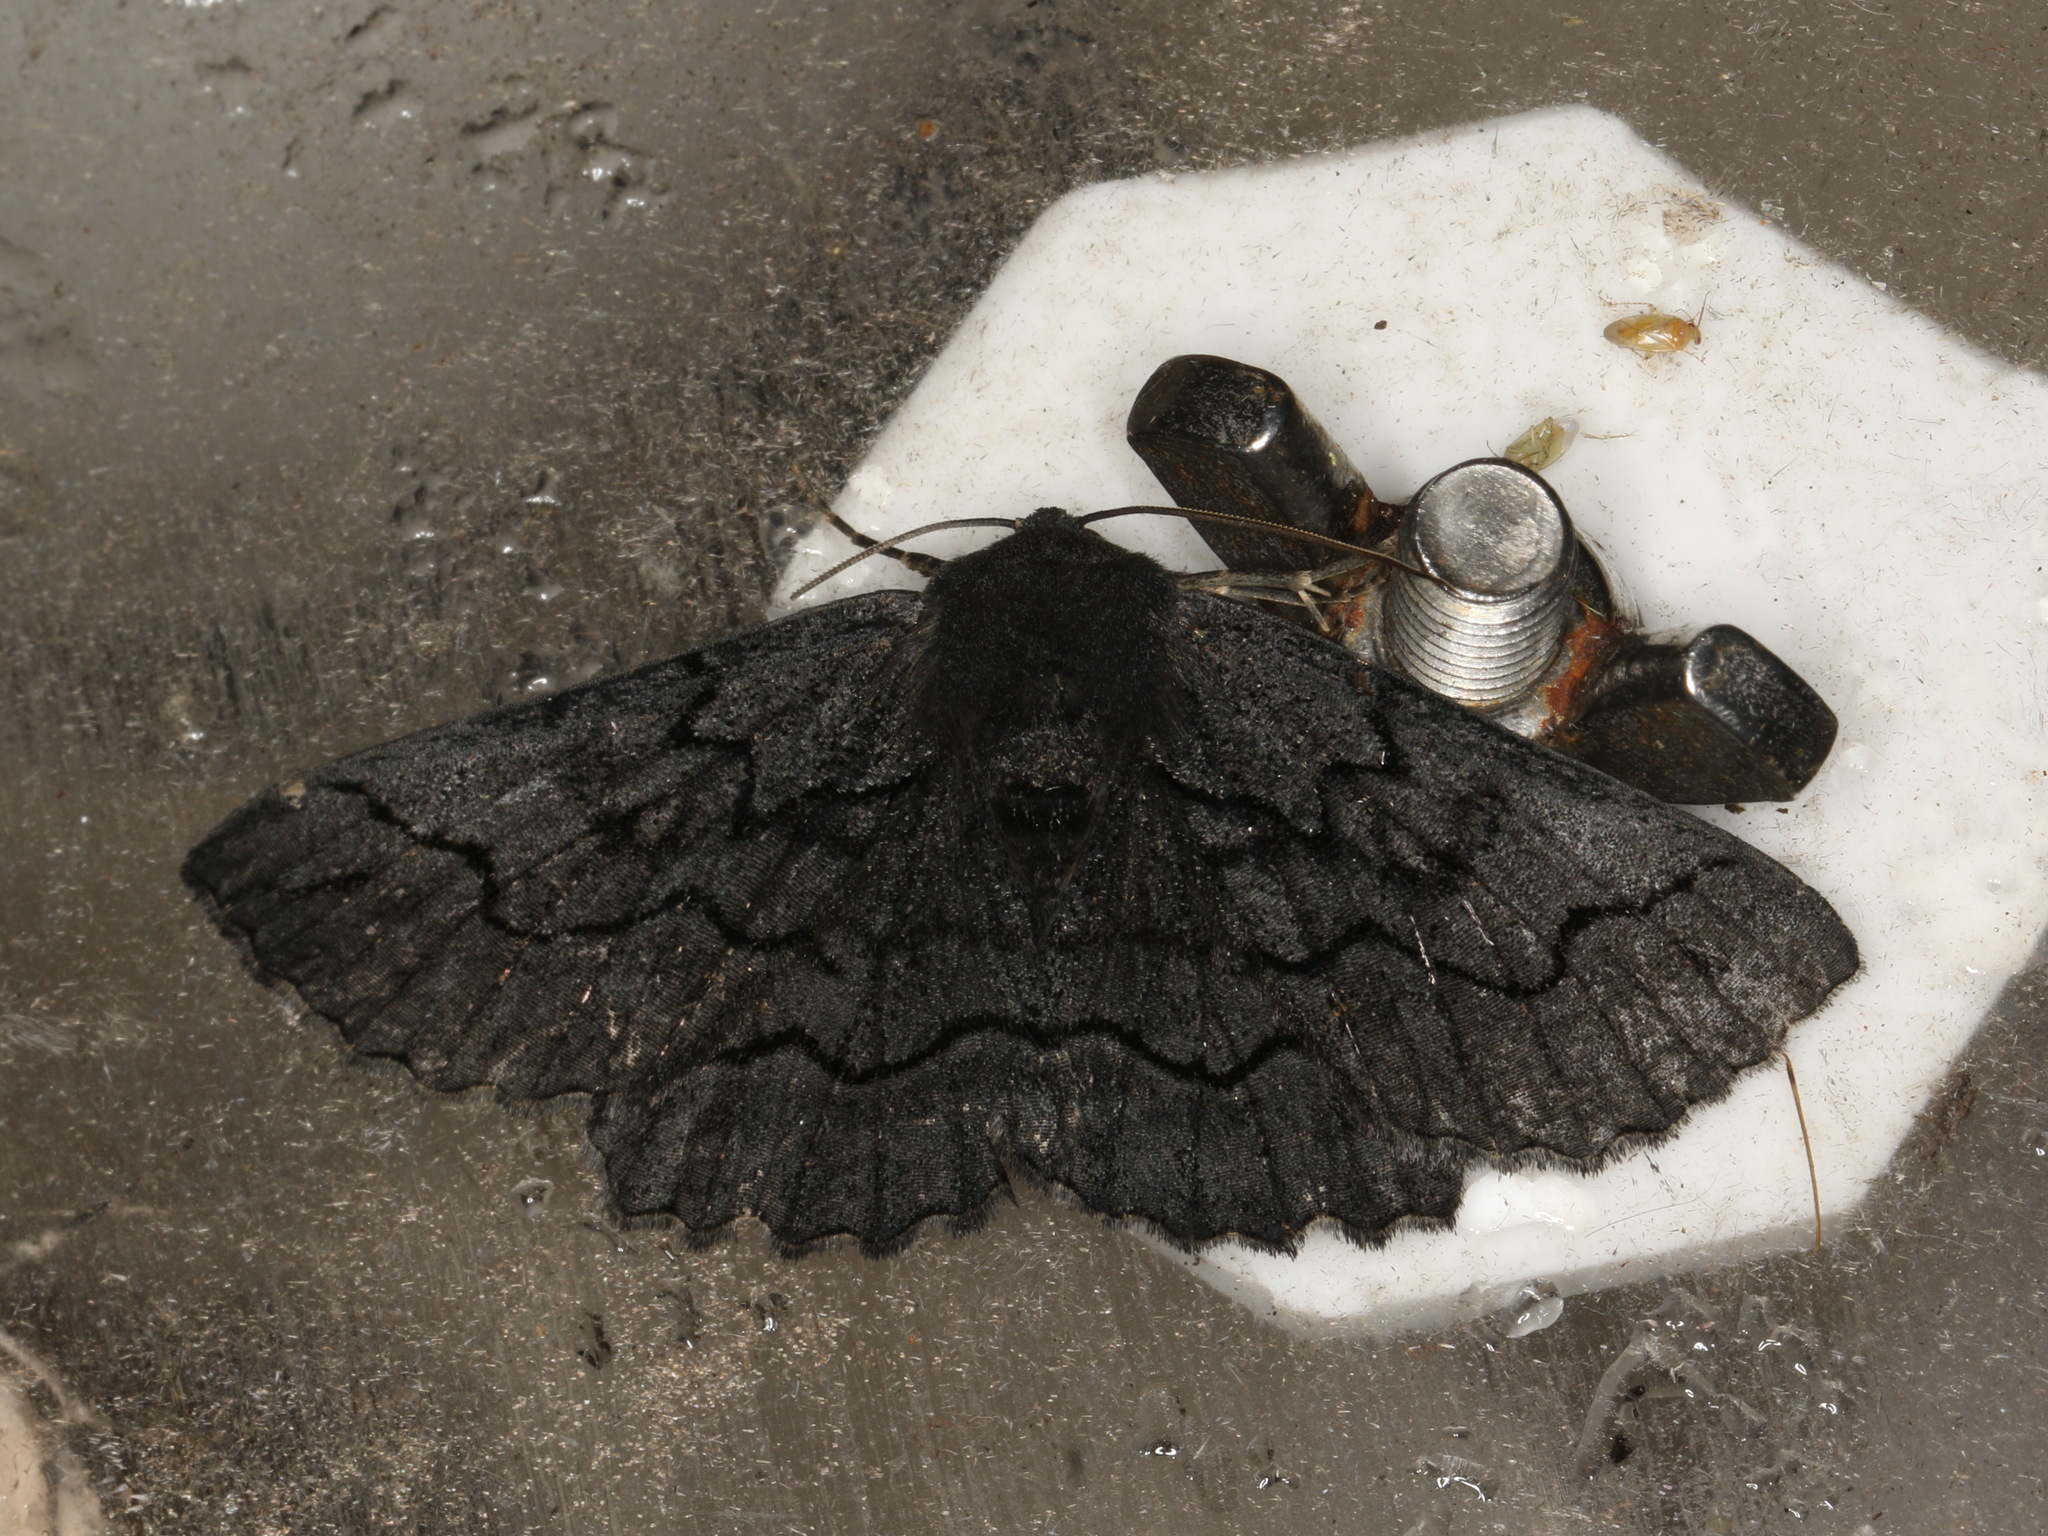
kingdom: Animalia
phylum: Arthropoda
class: Insecta
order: Lepidoptera
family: Geometridae
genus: Melanodes
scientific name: Melanodes anthracitaria
